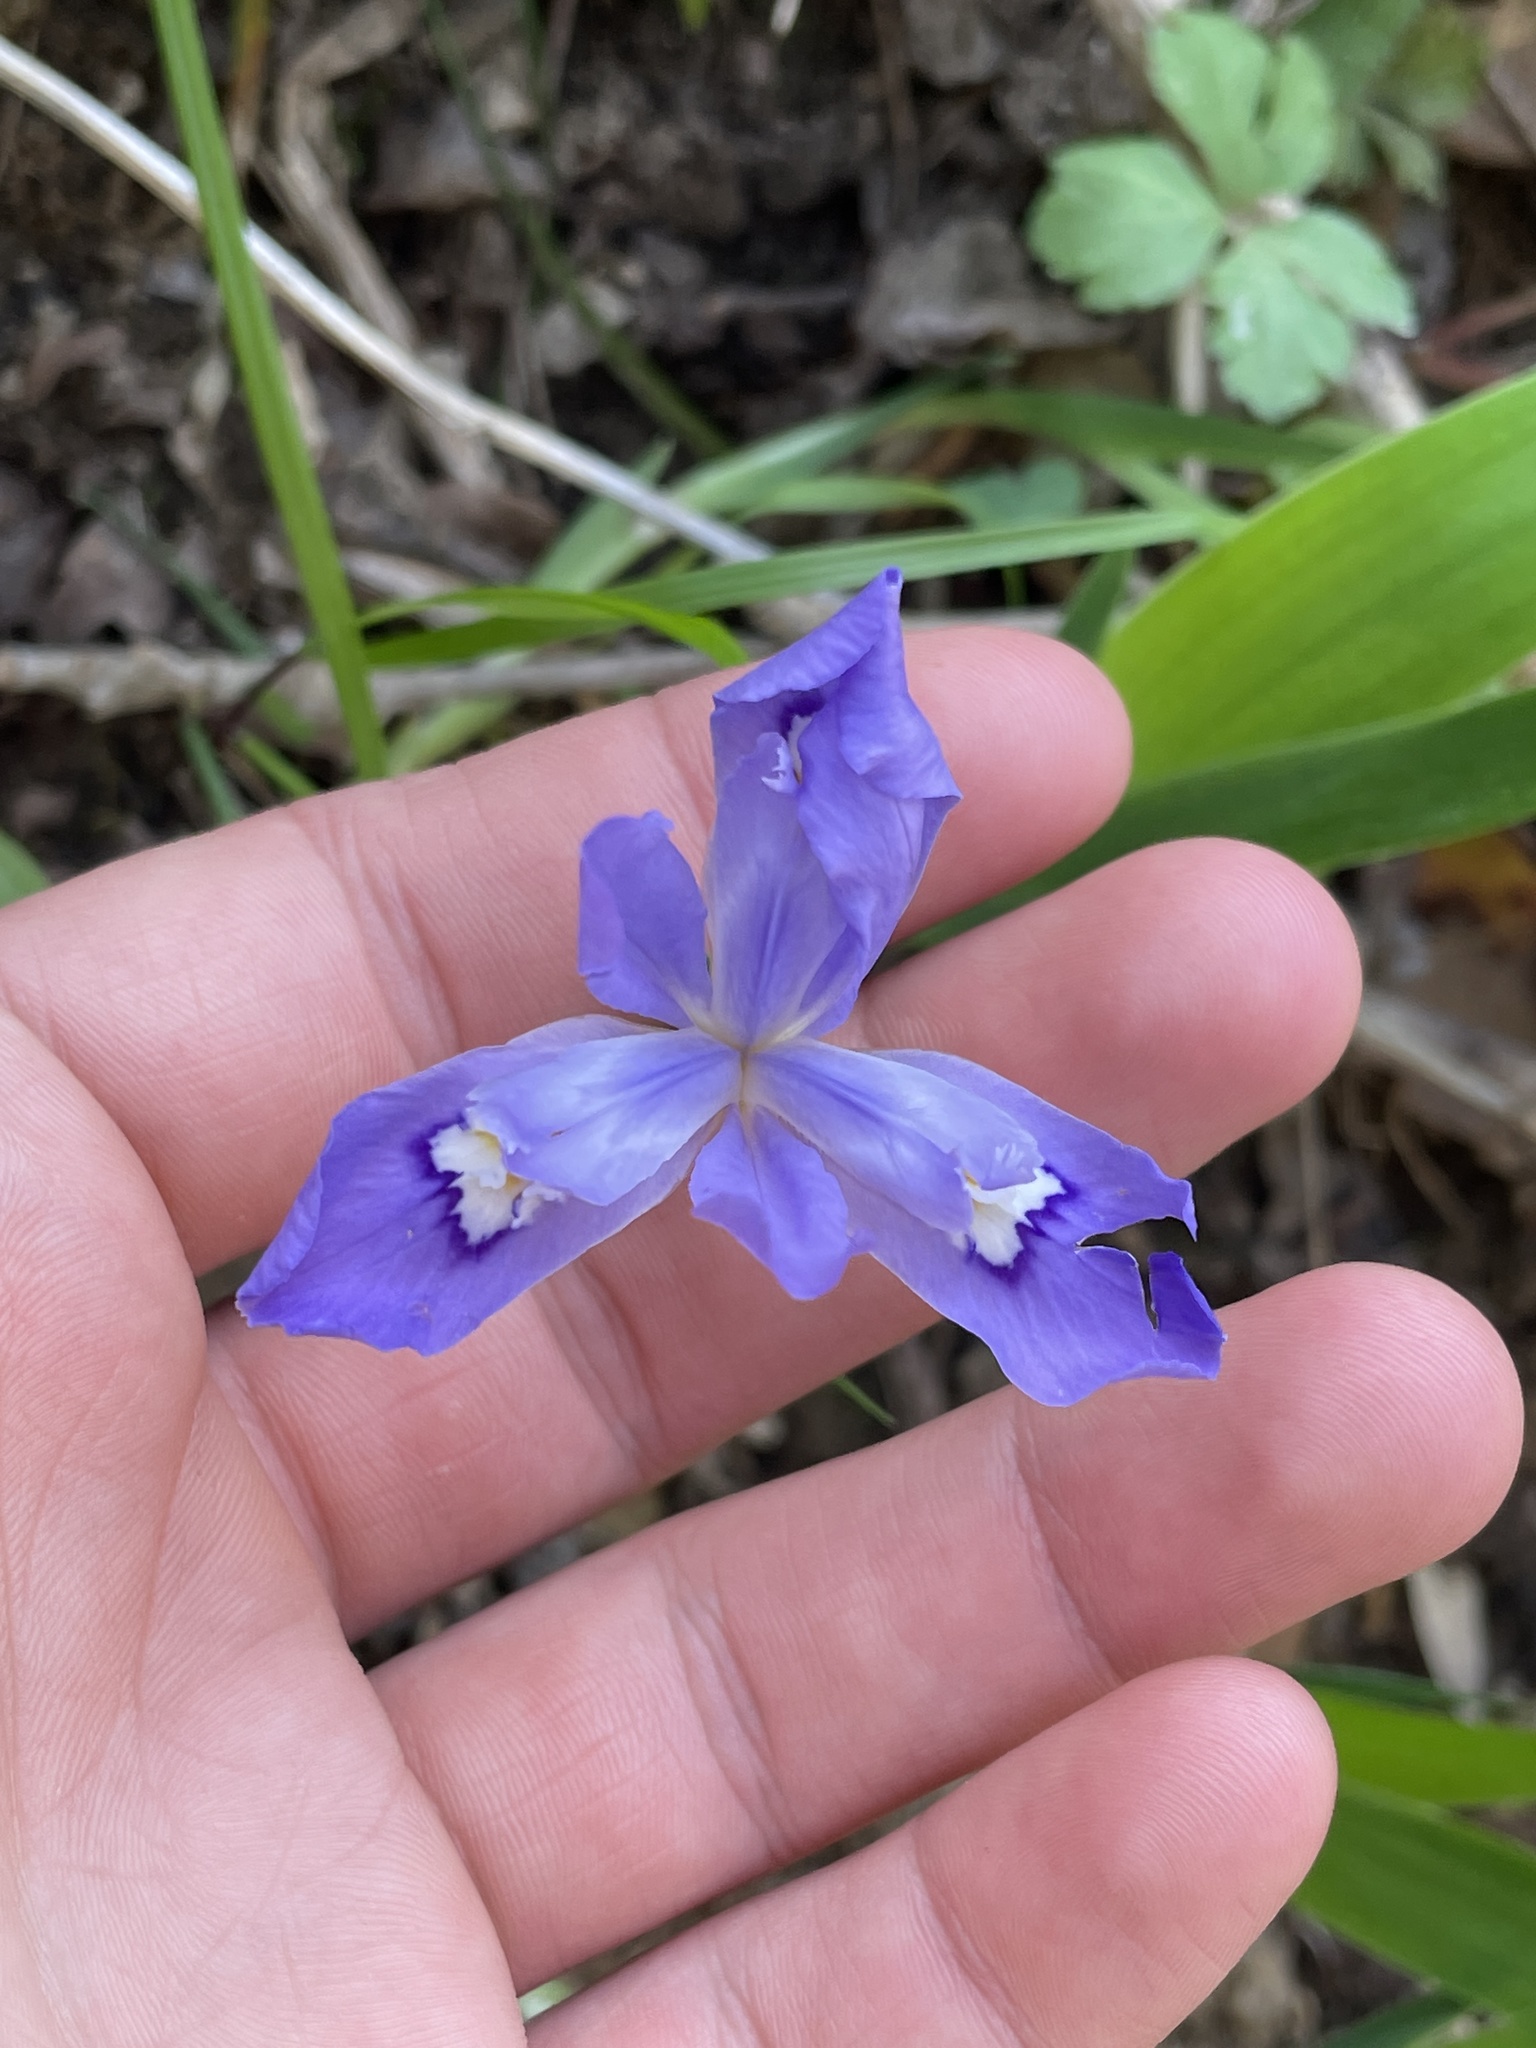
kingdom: Plantae
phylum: Tracheophyta
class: Liliopsida
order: Asparagales
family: Iridaceae
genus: Iris
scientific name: Iris cristata
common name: Crested iris
